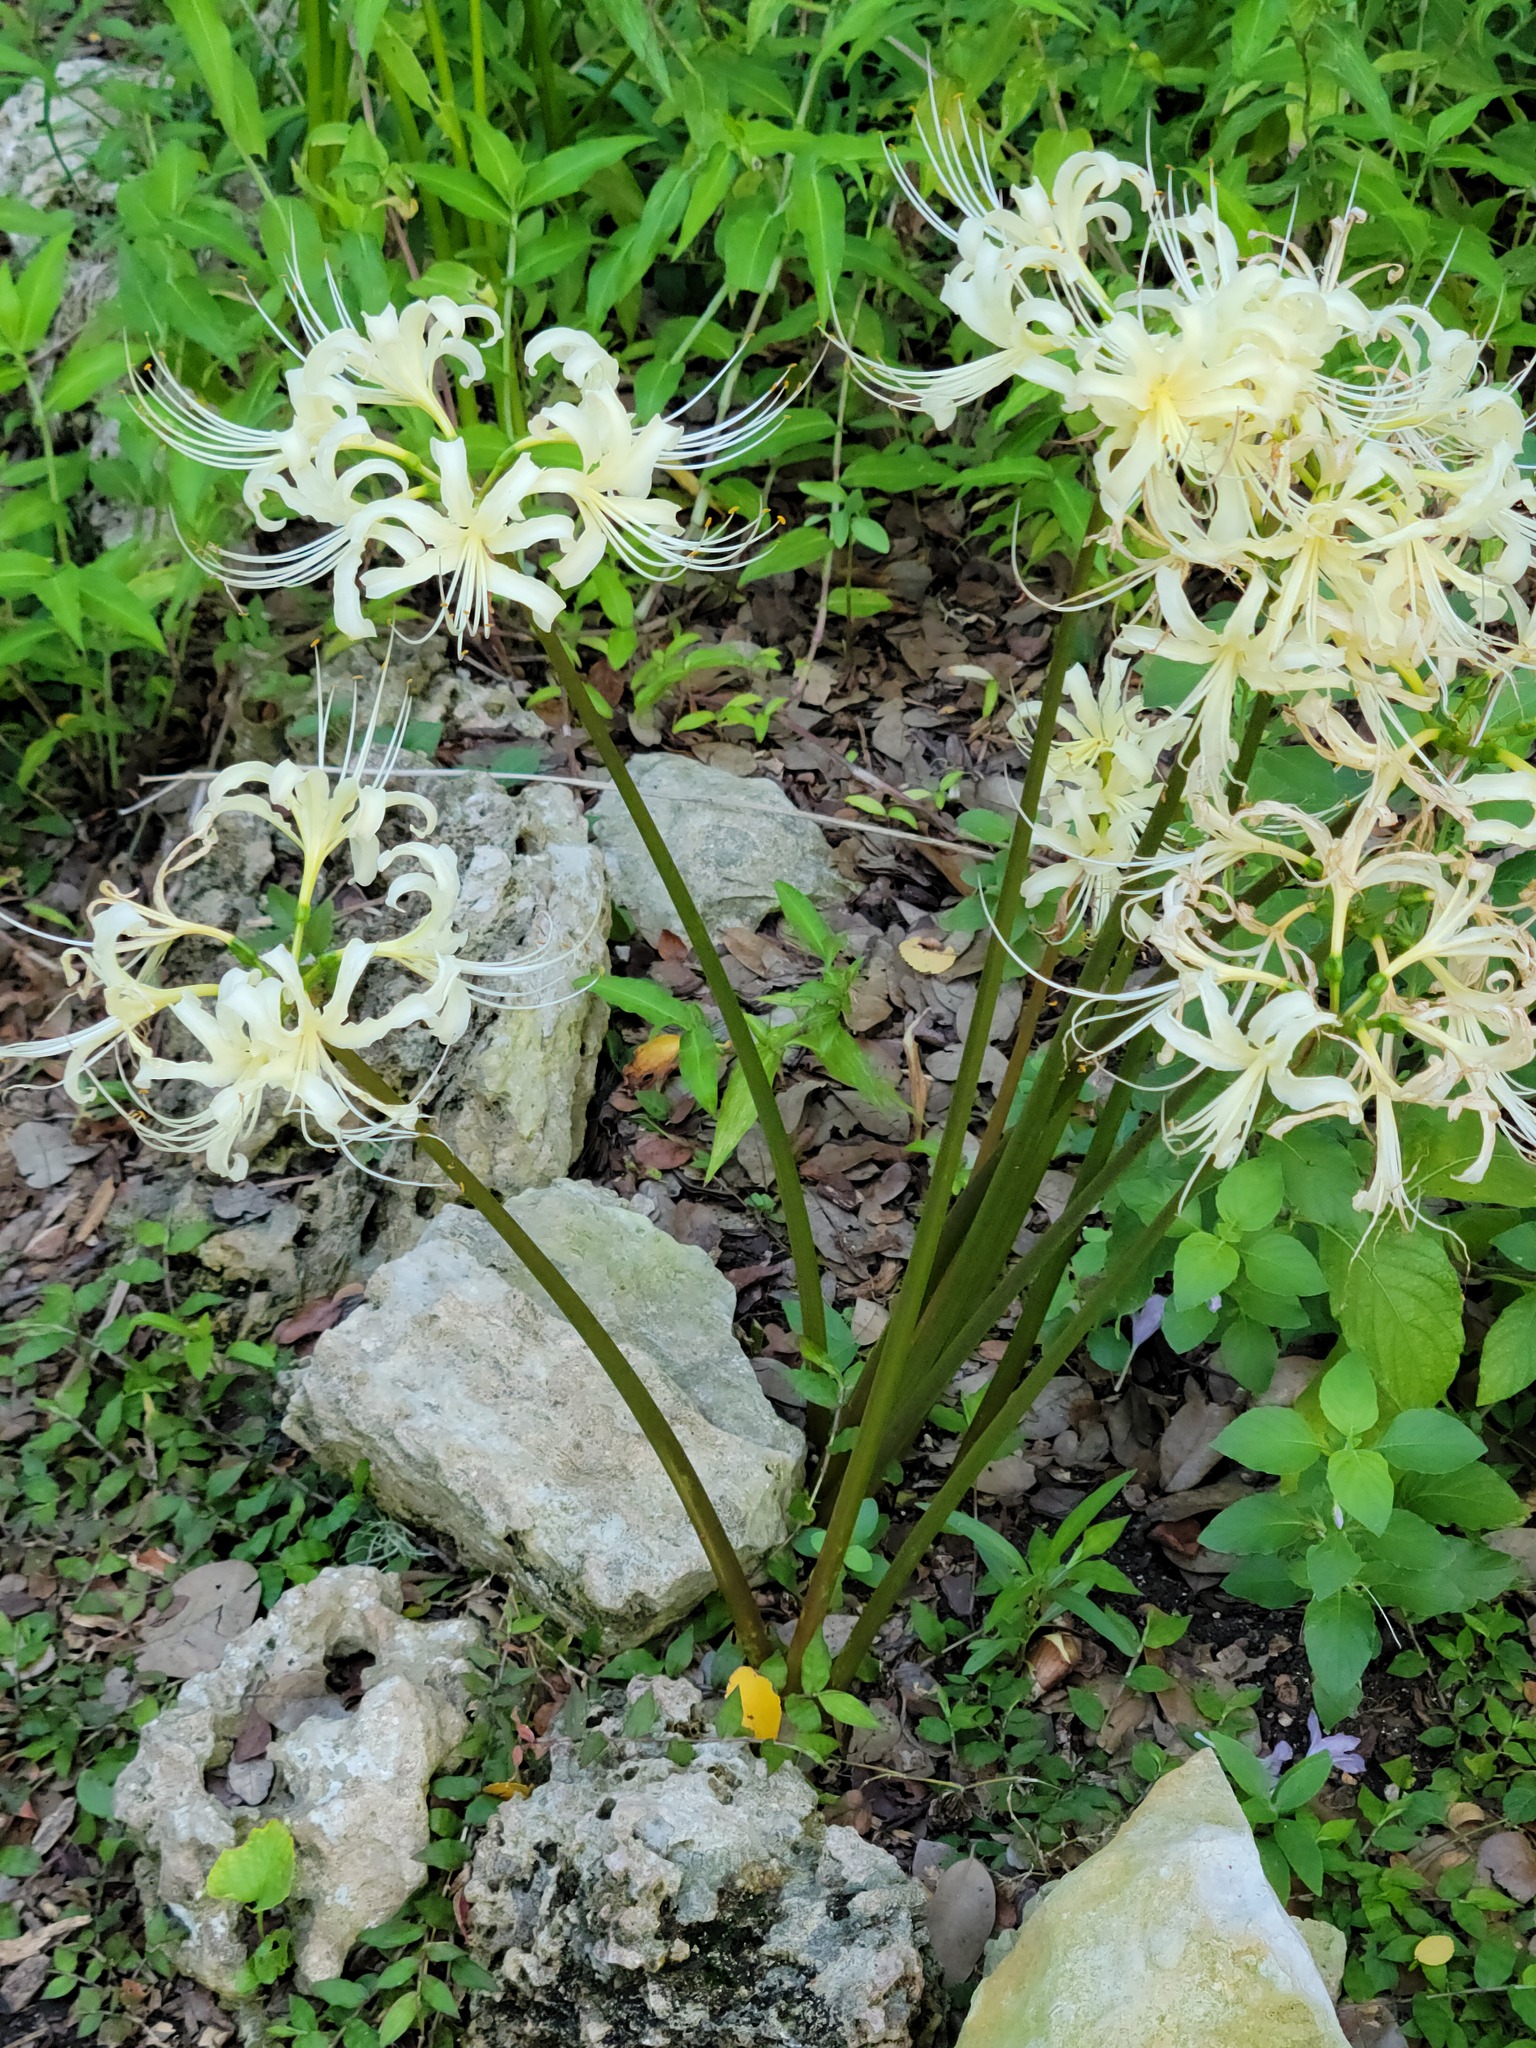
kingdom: Plantae
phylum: Tracheophyta
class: Liliopsida
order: Asparagales
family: Amaryllidaceae
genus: Lycoris
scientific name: Lycoris radiata
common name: Red spider lily
